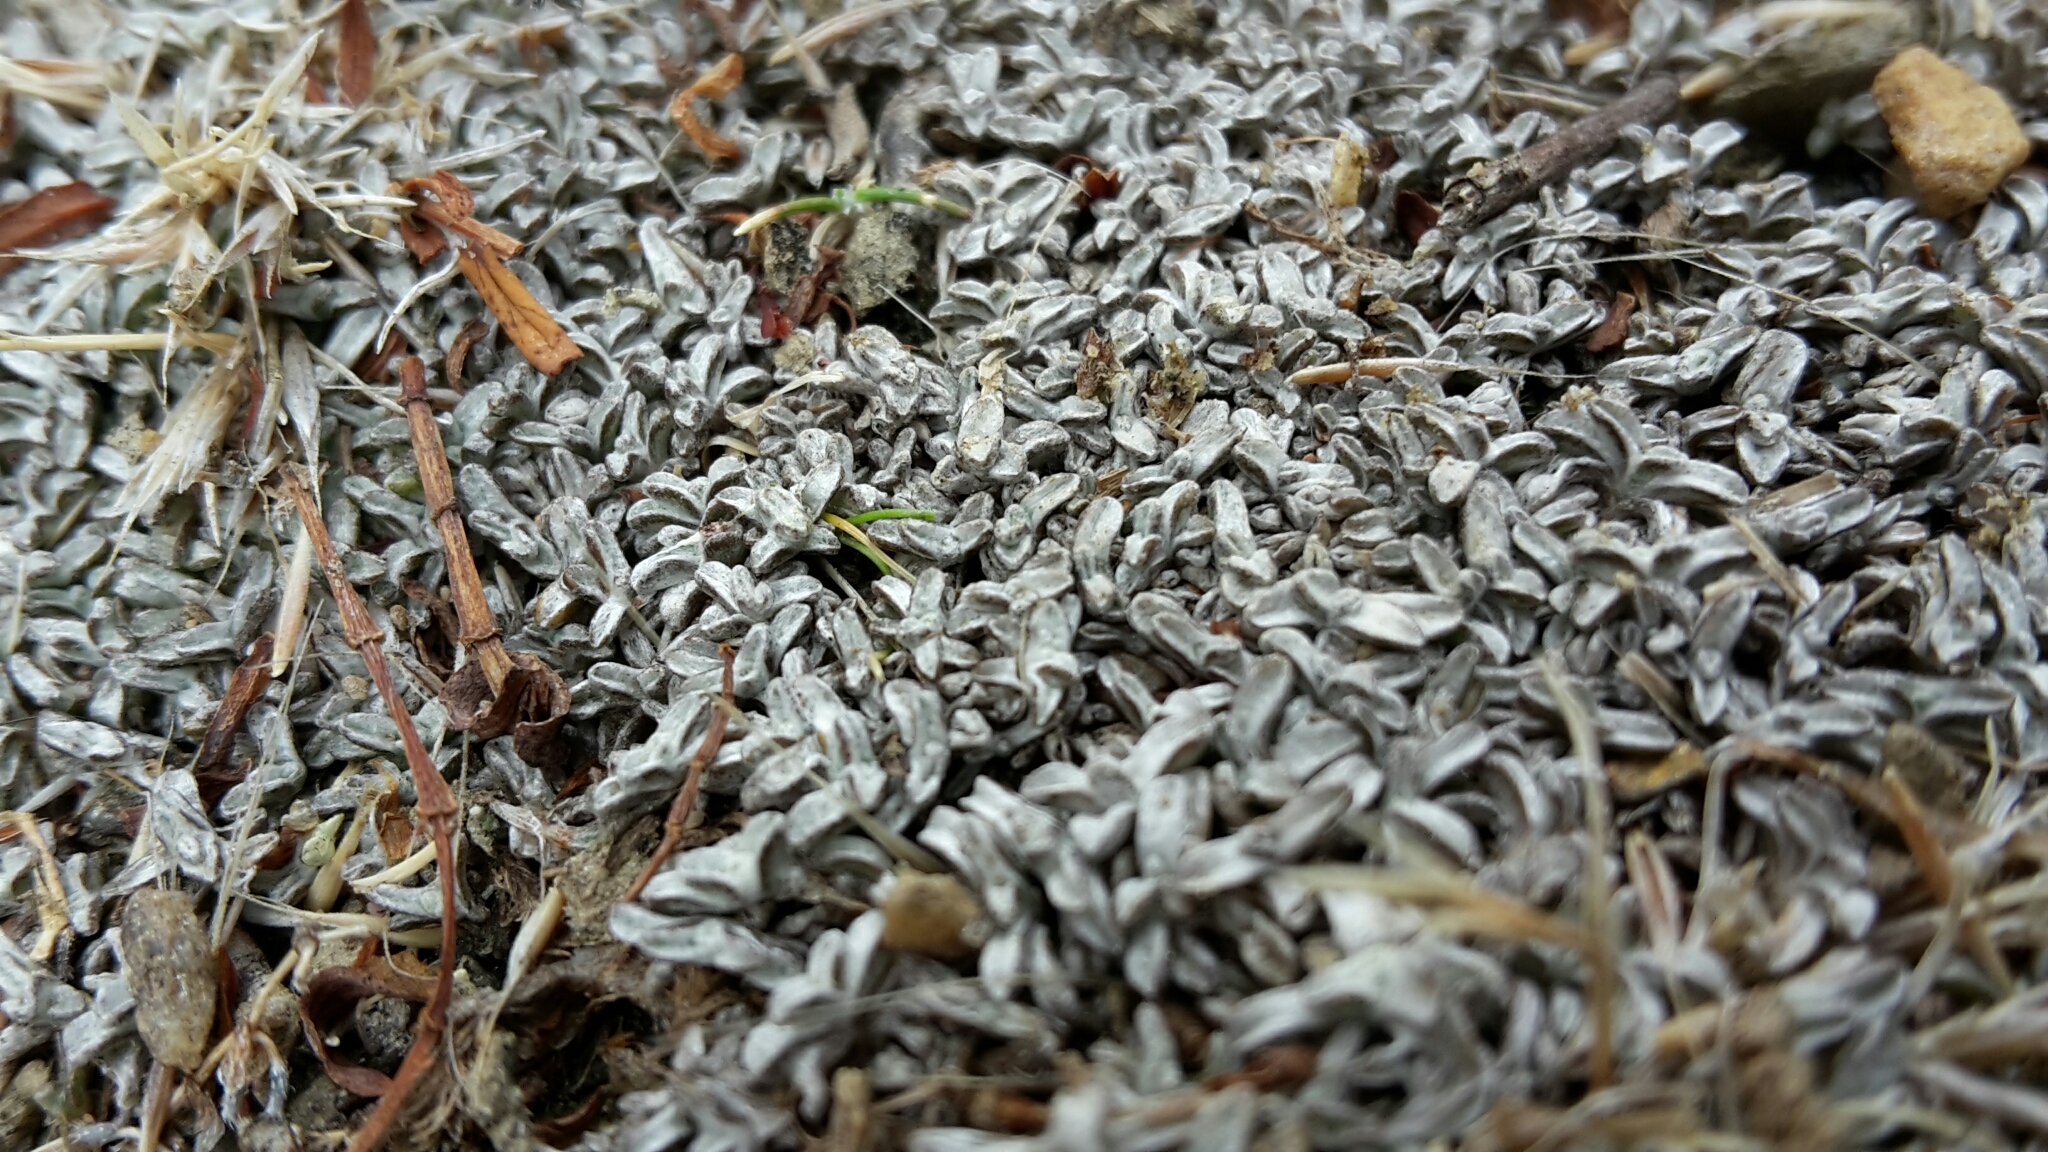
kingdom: Plantae
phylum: Tracheophyta
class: Magnoliopsida
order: Asterales
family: Asteraceae
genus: Raoulia
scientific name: Raoulia monroi
